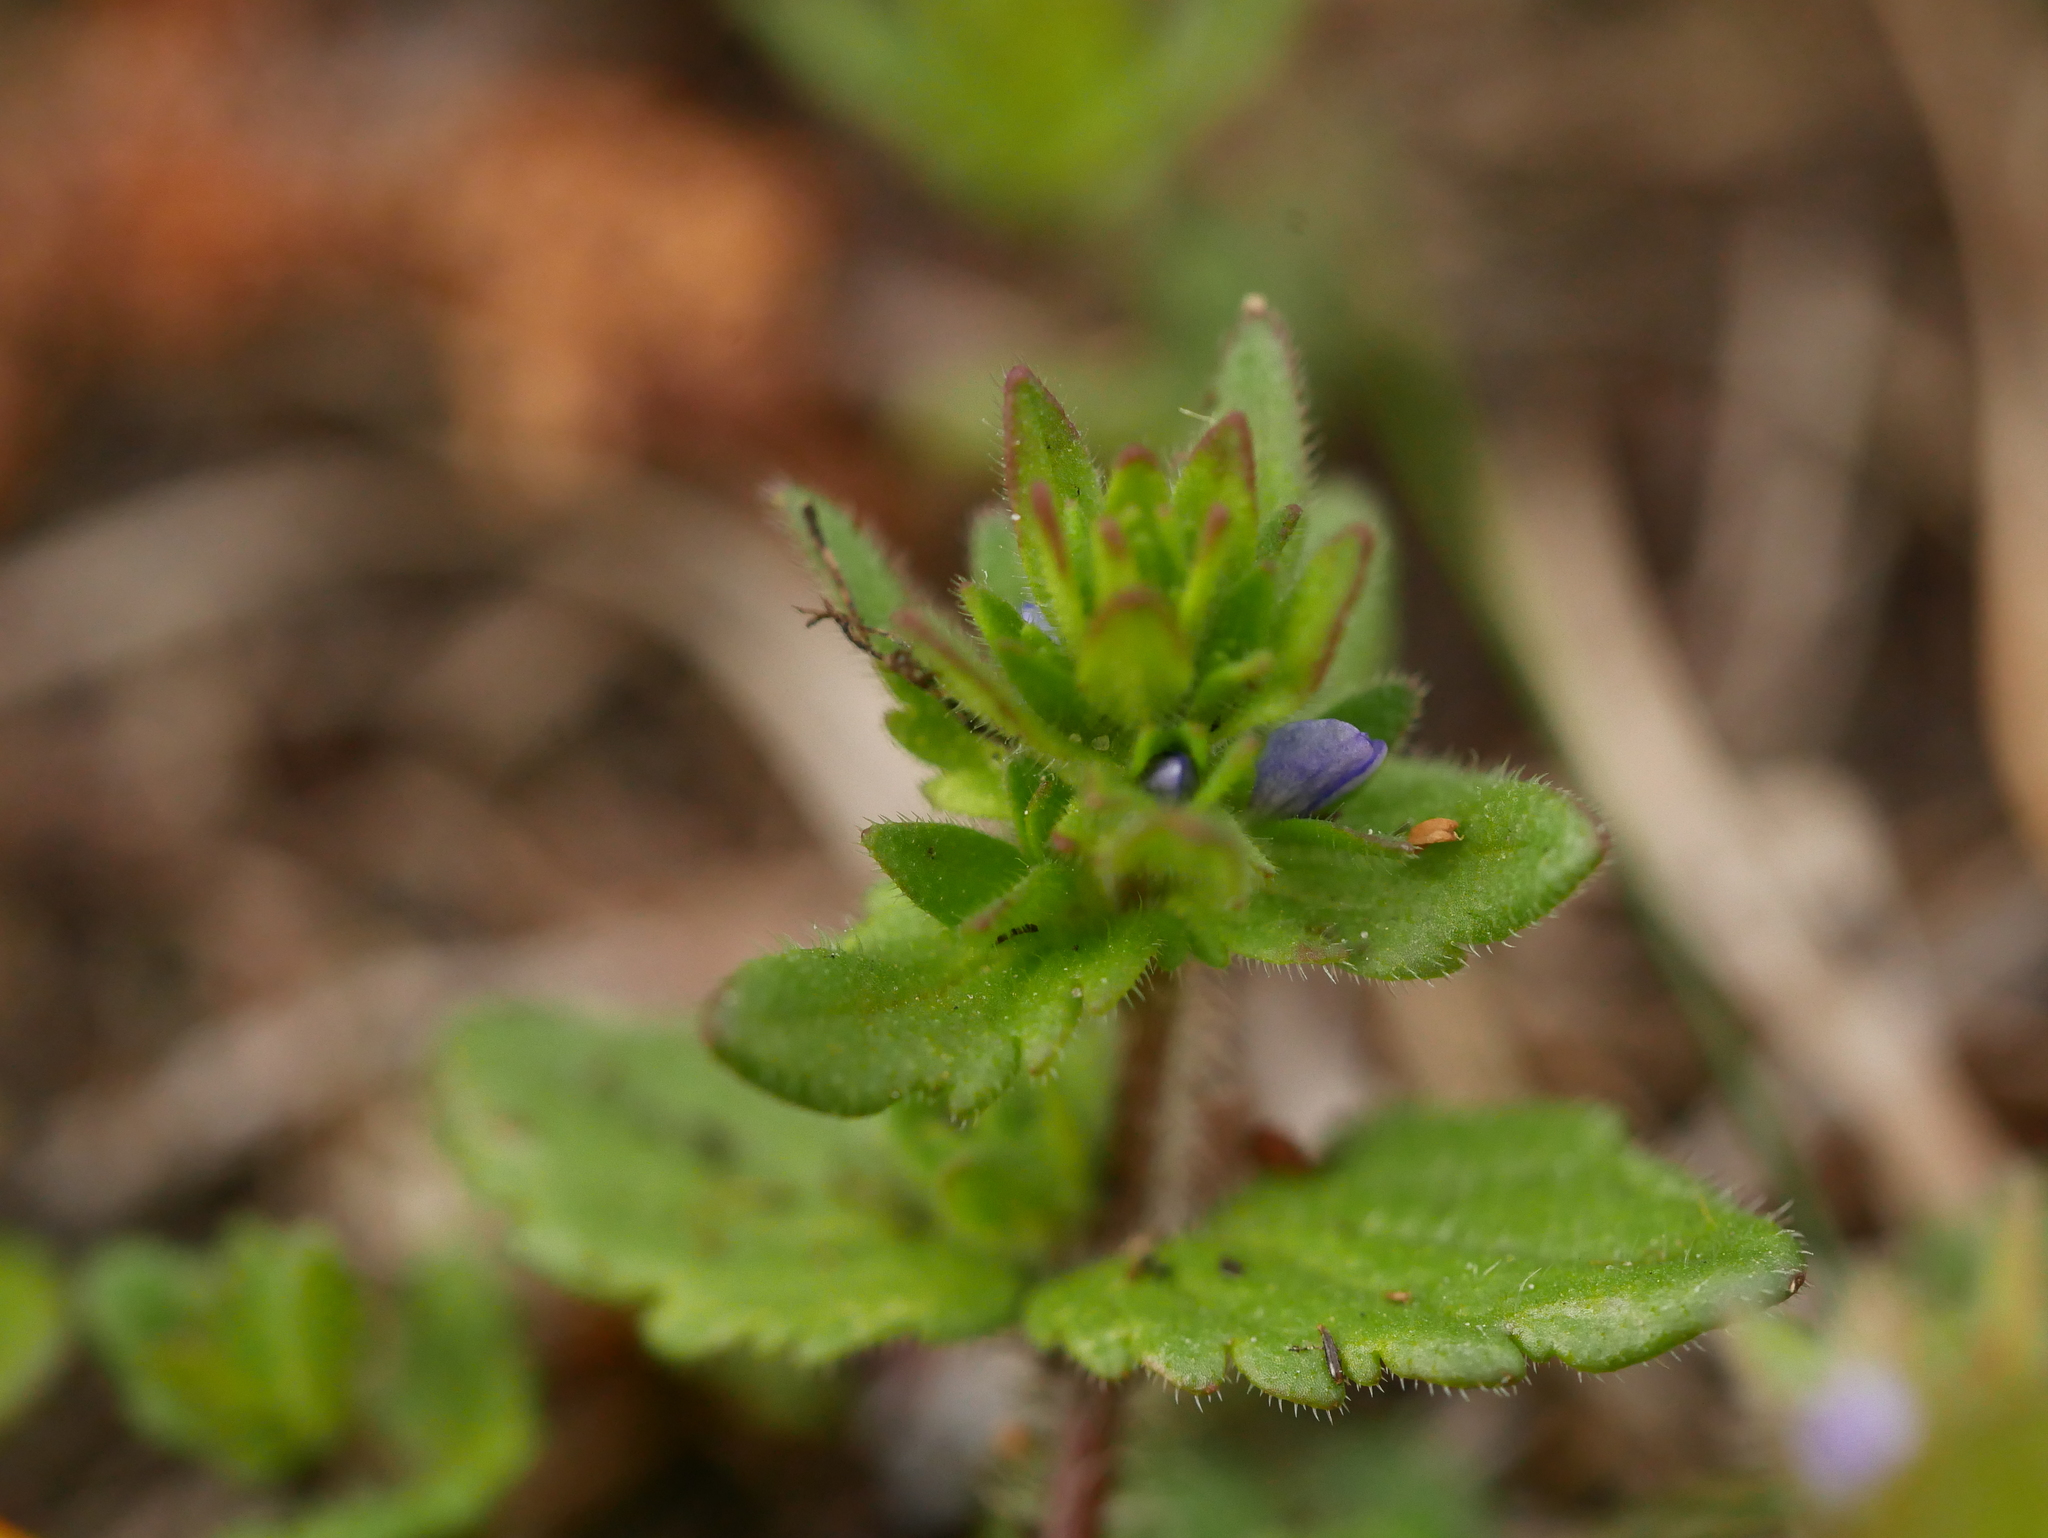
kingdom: Plantae
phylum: Tracheophyta
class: Magnoliopsida
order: Lamiales
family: Plantaginaceae
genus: Veronica
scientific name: Veronica arvensis
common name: Corn speedwell
